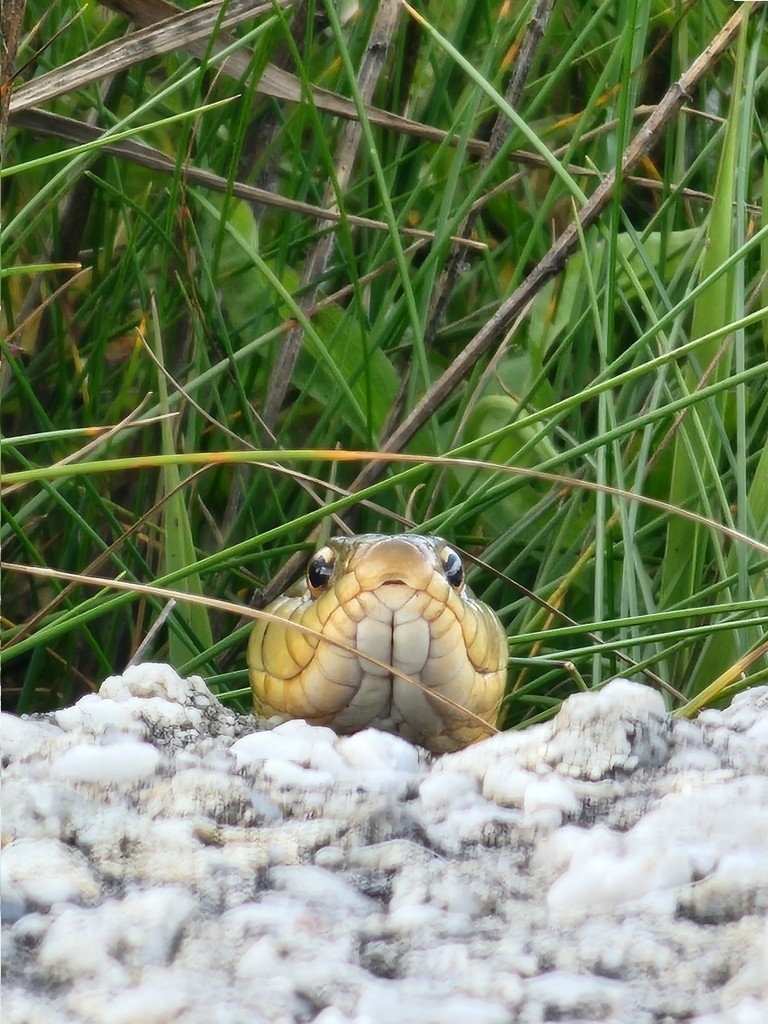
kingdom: Animalia
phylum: Chordata
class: Squamata
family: Colubridae
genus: Thamnophis
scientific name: Thamnophis sirtalis
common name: Common garter snake
